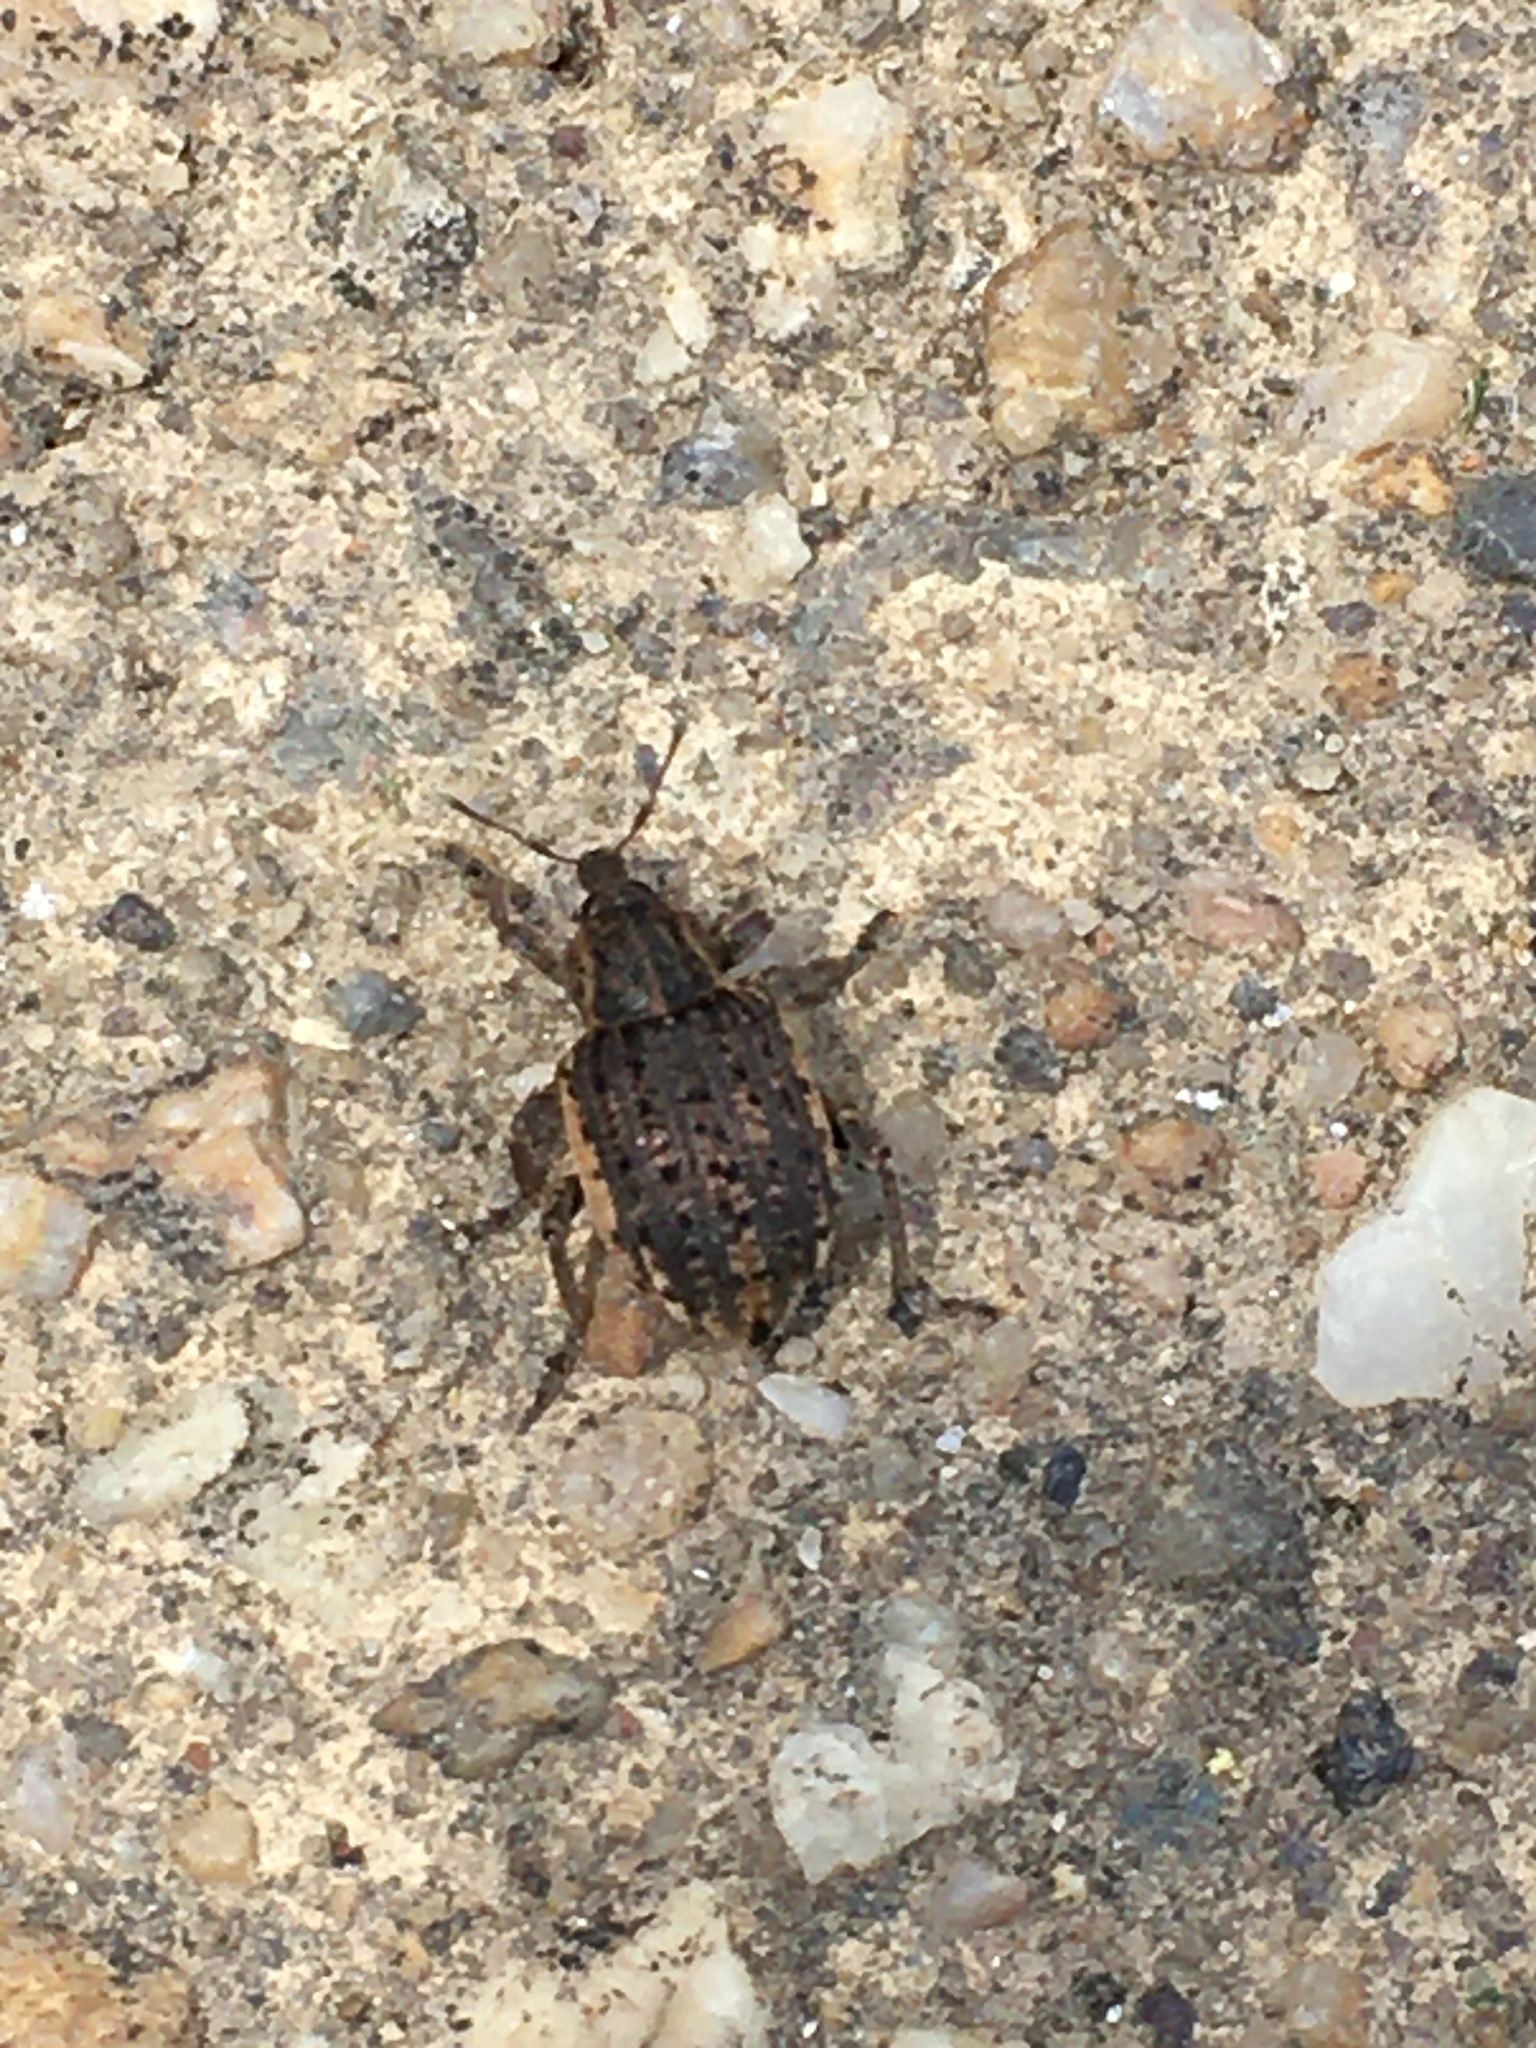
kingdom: Animalia
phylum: Arthropoda
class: Insecta
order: Coleoptera
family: Curculionidae
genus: Brachypera
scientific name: Brachypera zoilus
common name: Clover leaf weevil
